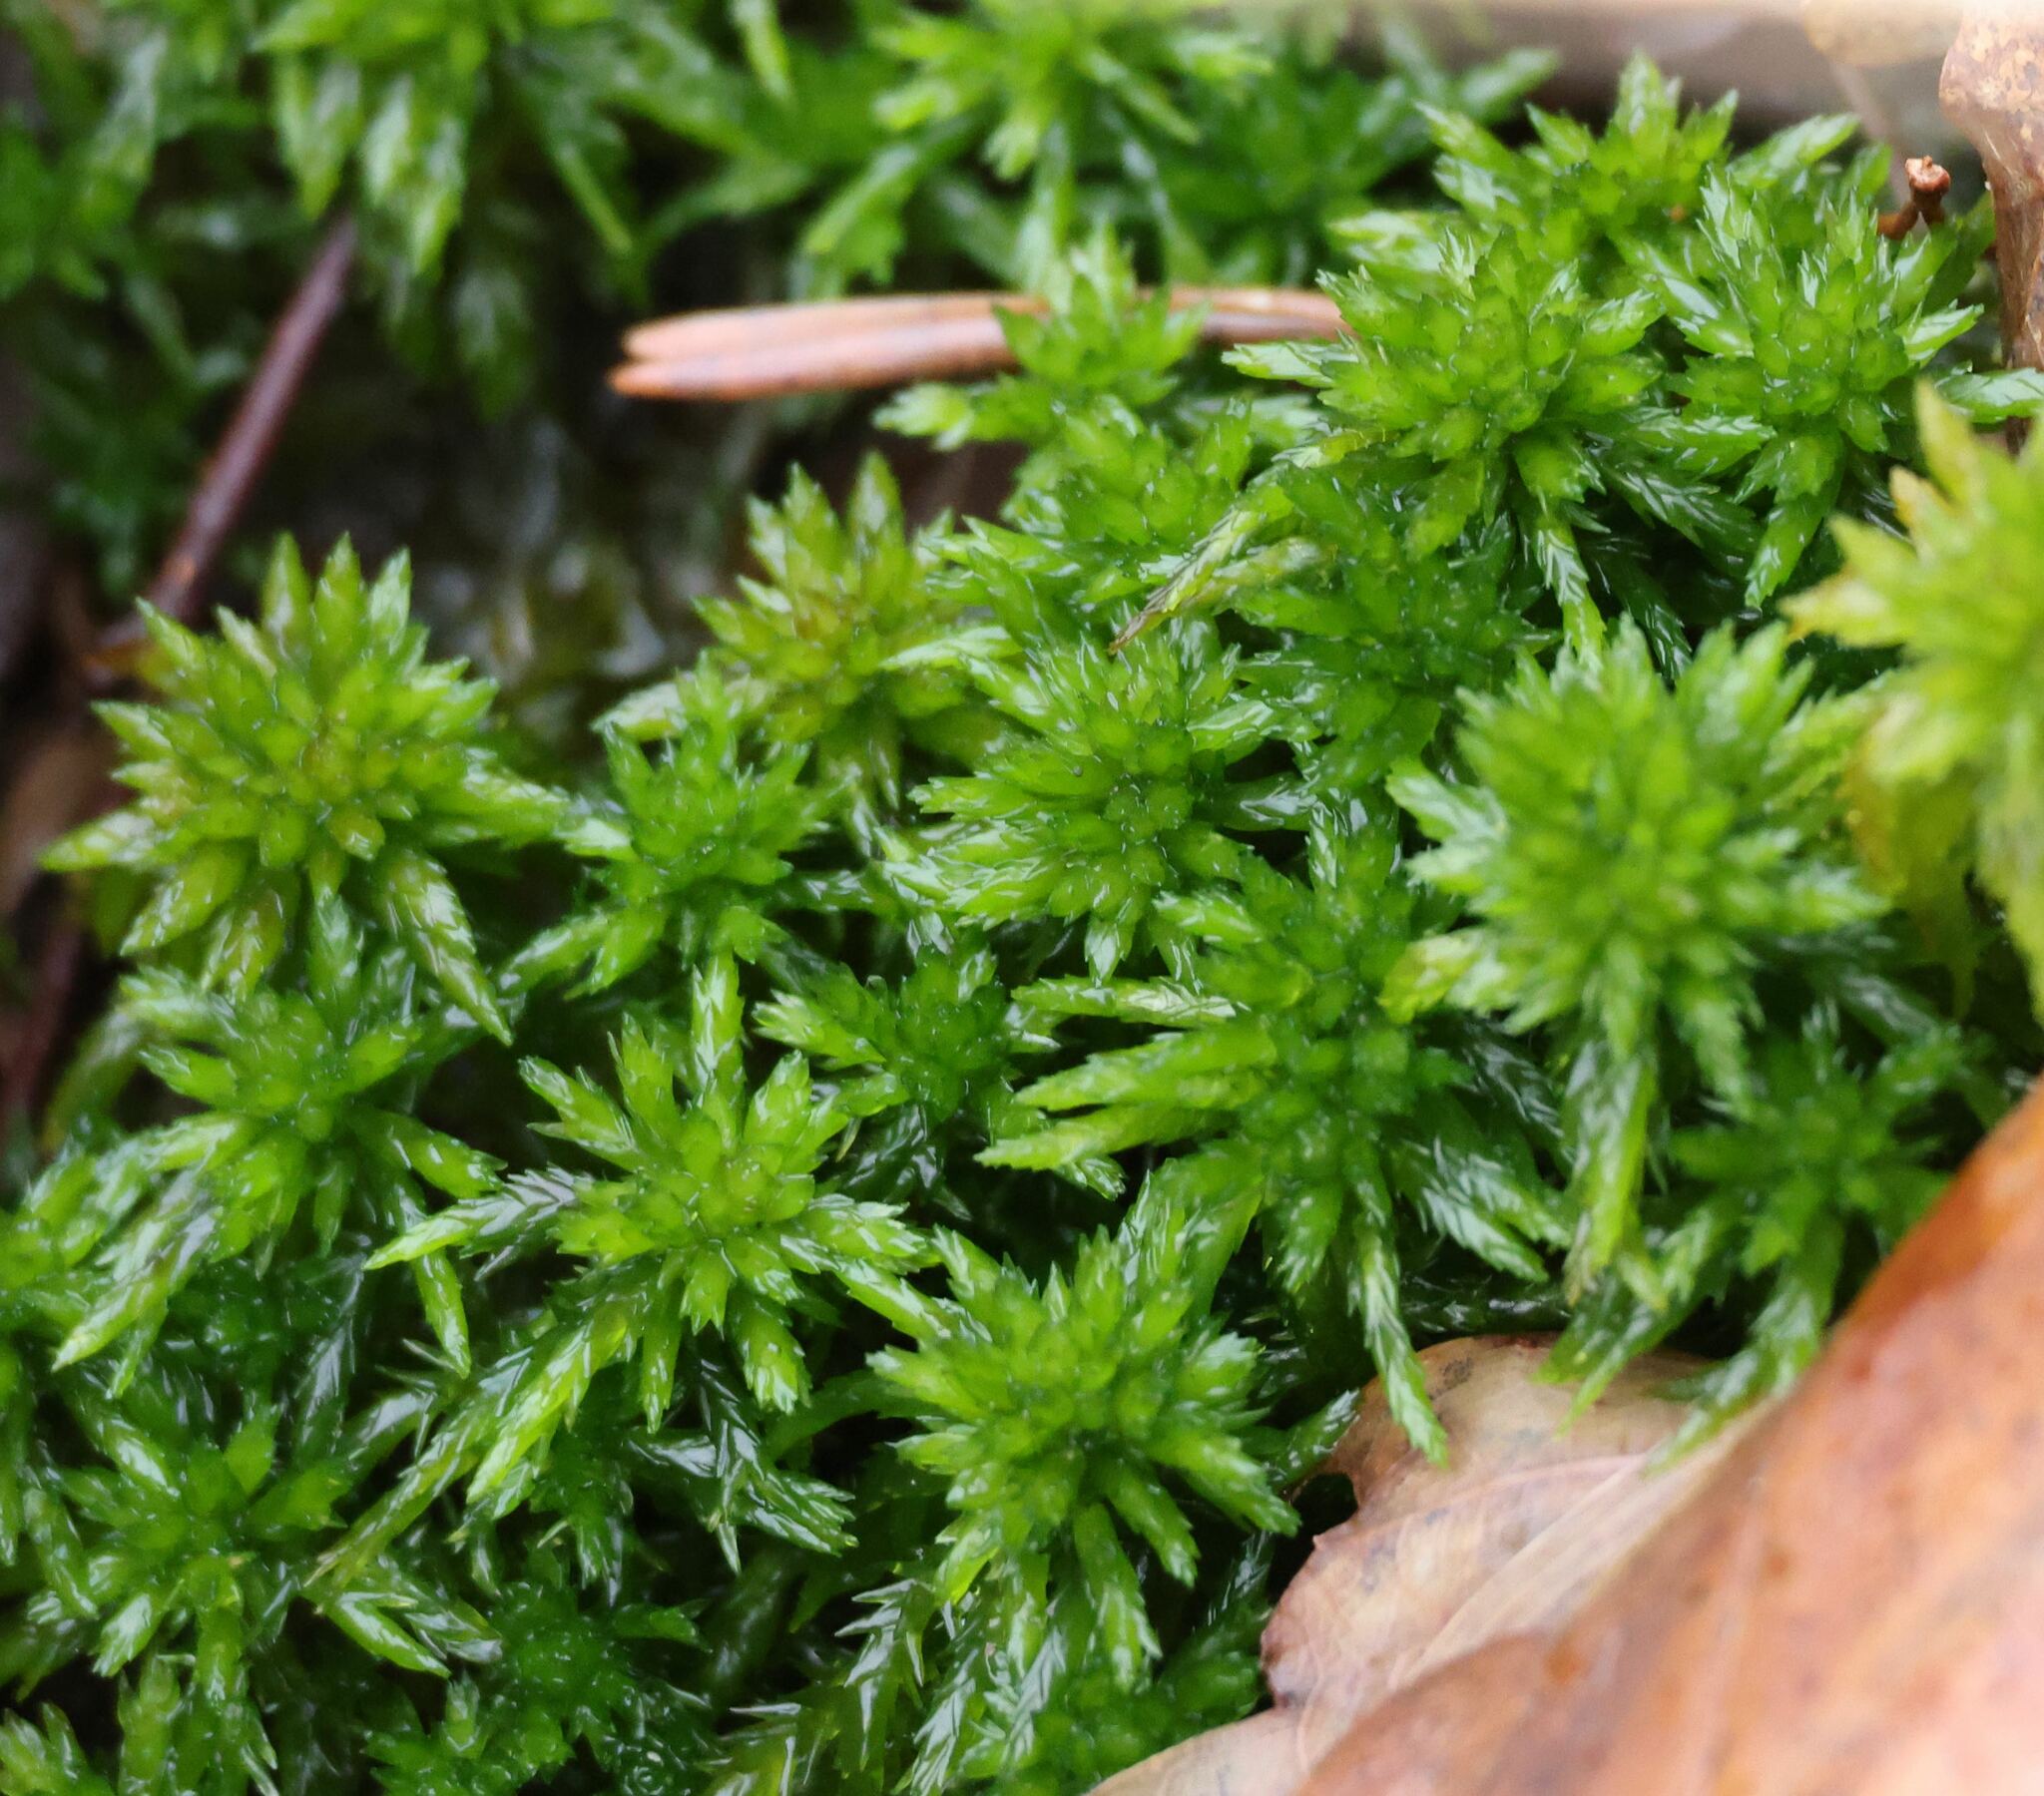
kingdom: Plantae
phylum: Bryophyta
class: Sphagnopsida
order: Sphagnales
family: Sphagnaceae
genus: Sphagnum
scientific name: Sphagnum inundatum
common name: Lesser cow-horn bog-moss
